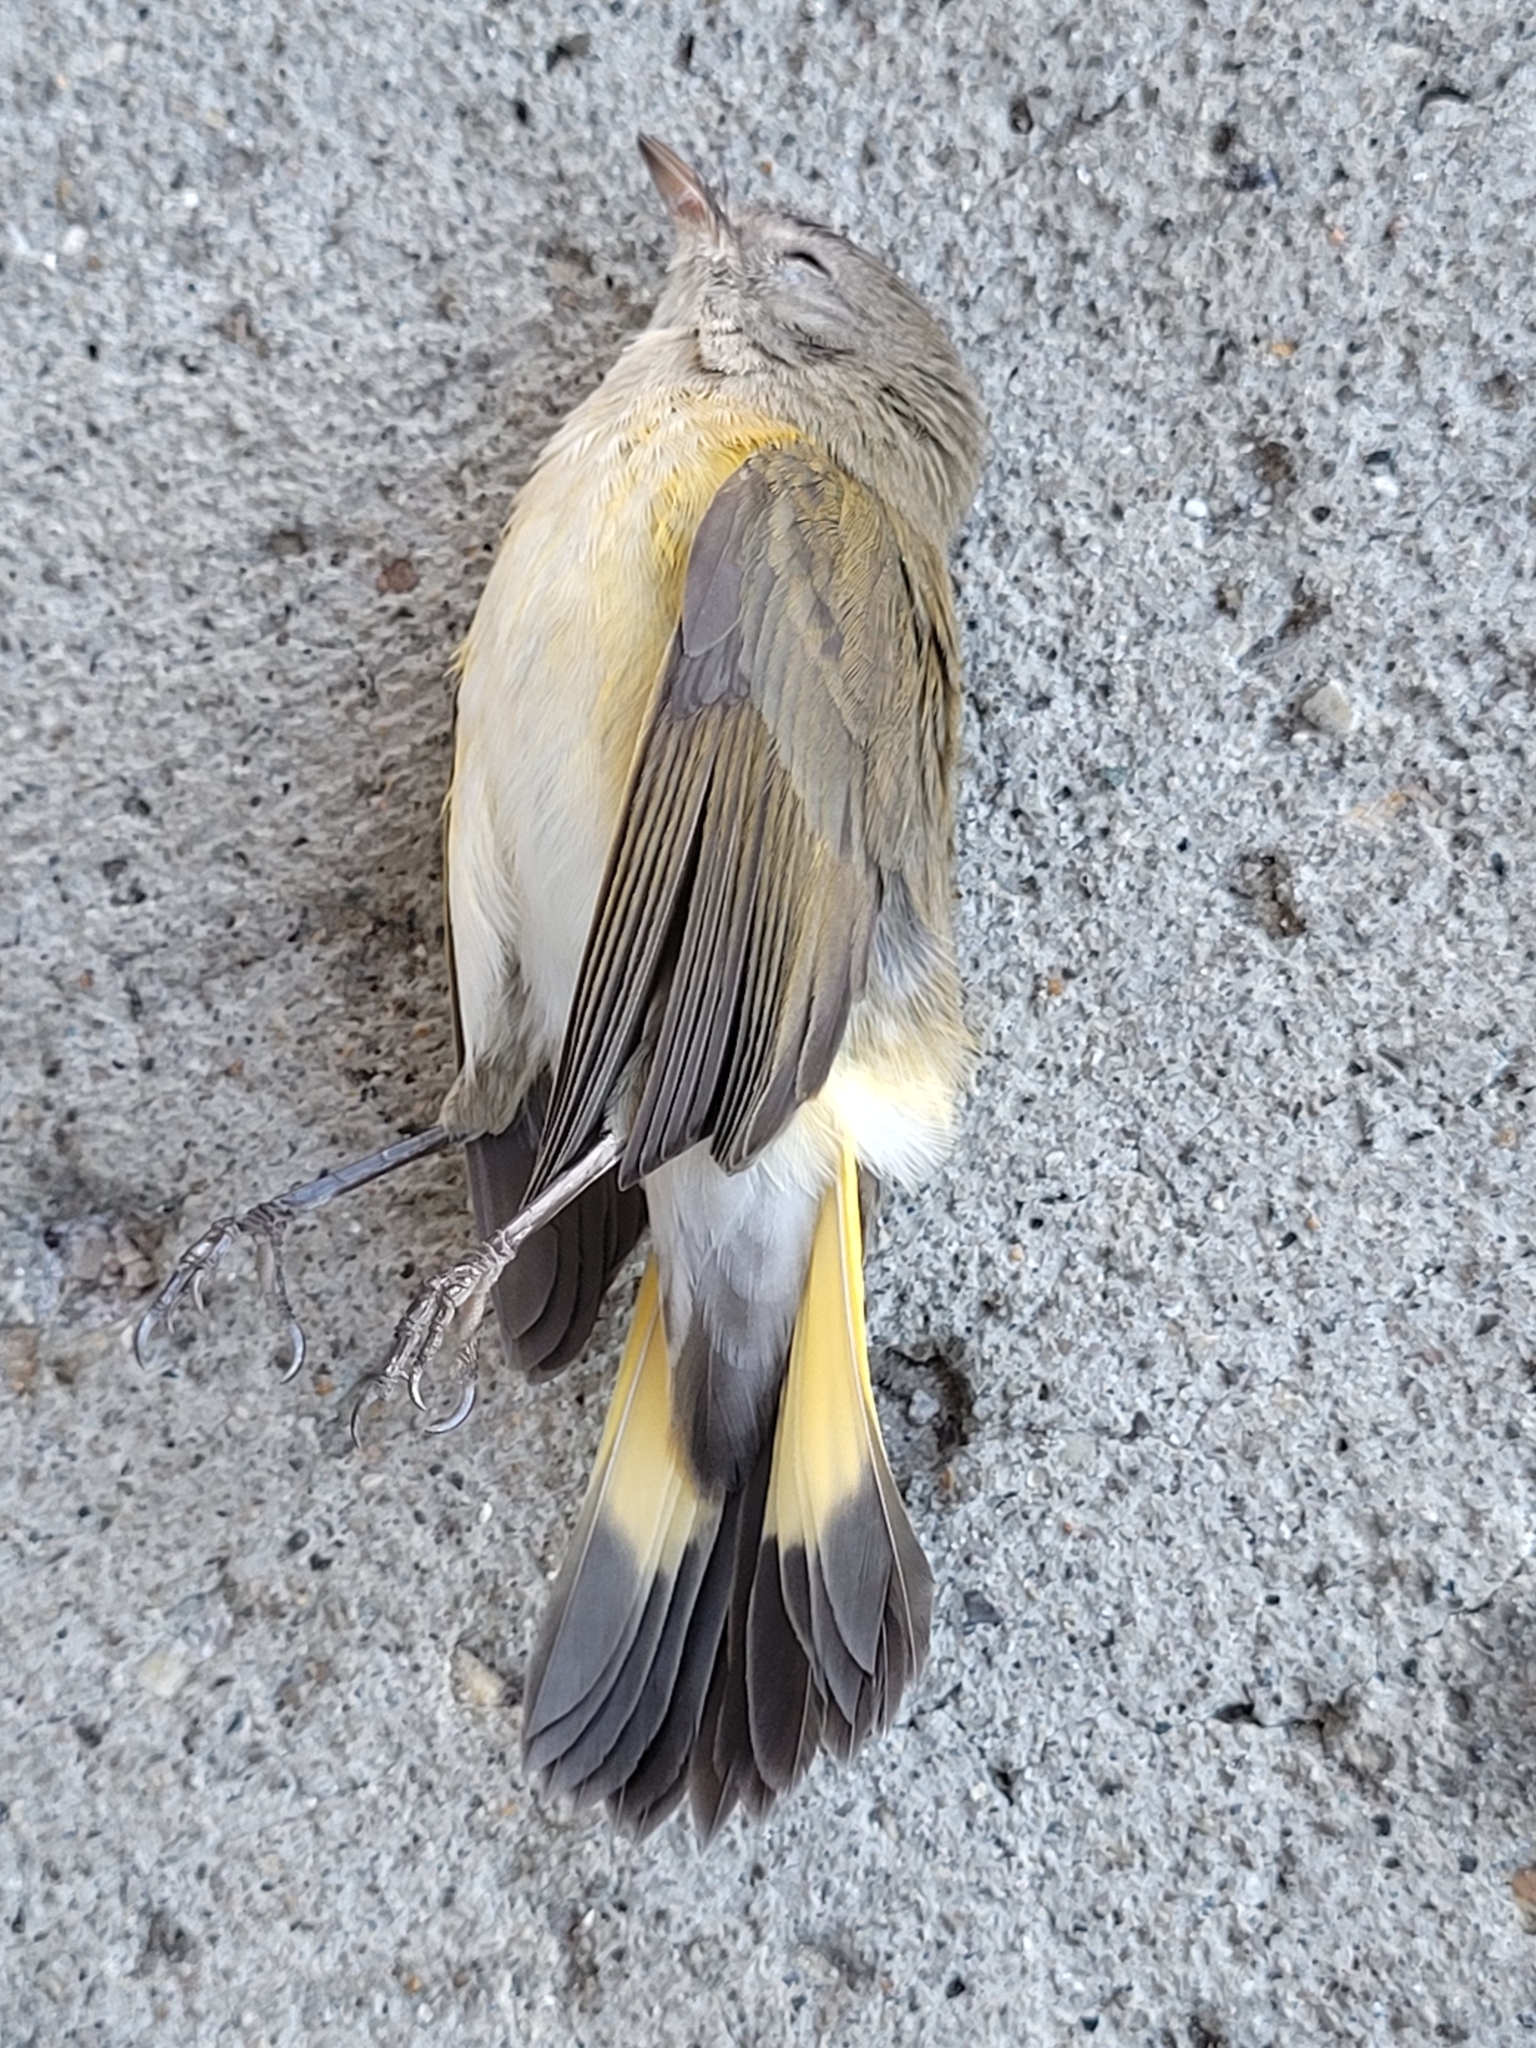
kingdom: Animalia
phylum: Chordata
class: Aves
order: Passeriformes
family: Parulidae
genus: Setophaga
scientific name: Setophaga ruticilla
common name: American redstart
